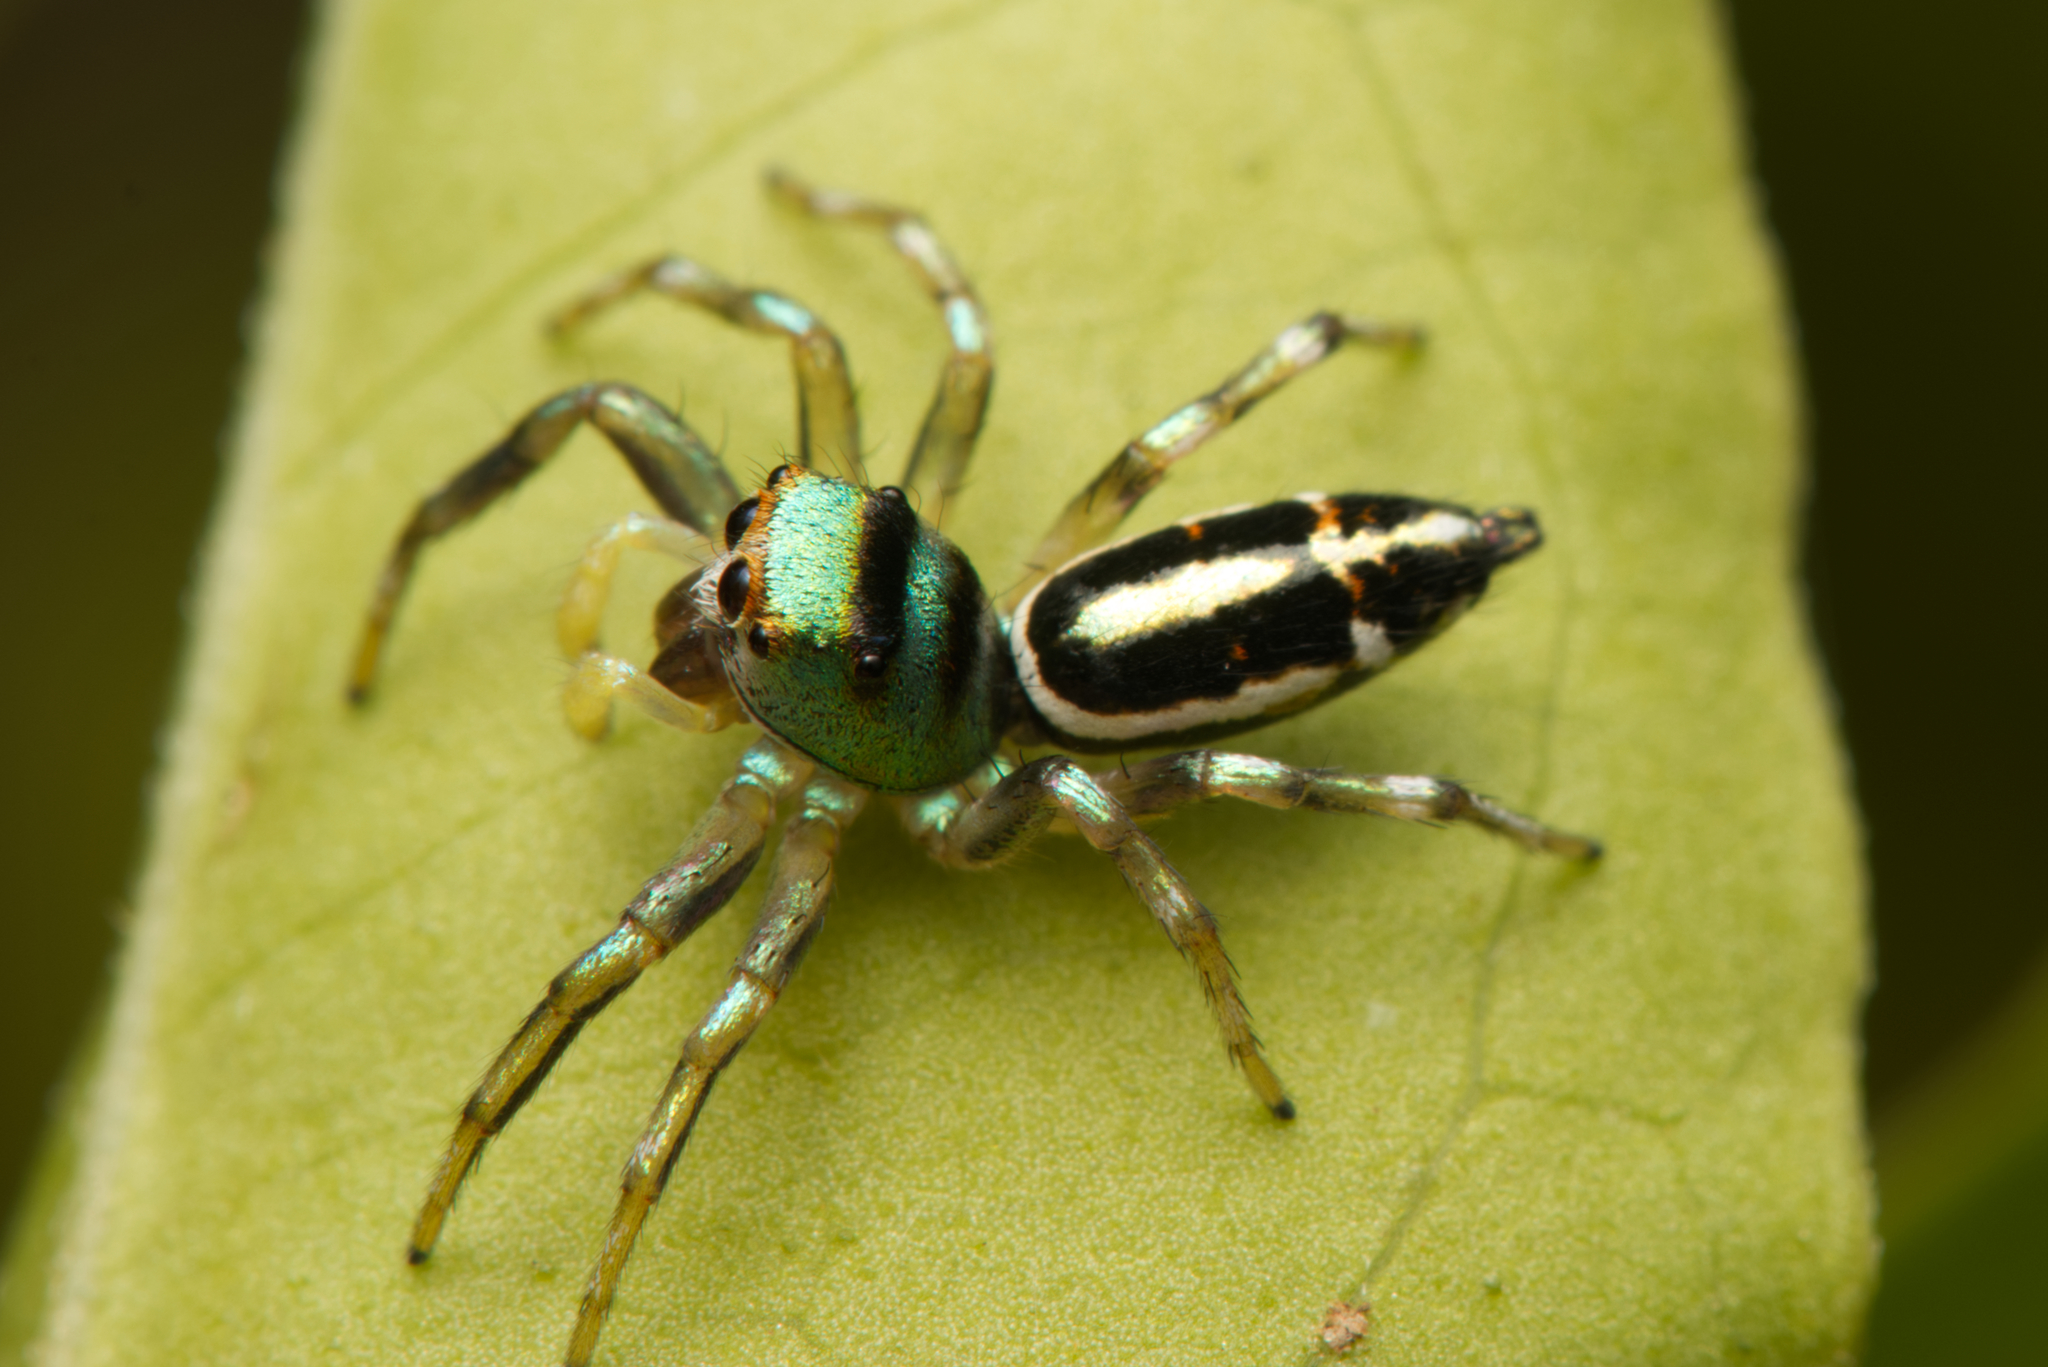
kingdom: Animalia
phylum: Arthropoda
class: Arachnida
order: Araneae
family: Salticidae
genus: Cosmophasis
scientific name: Cosmophasis thalassina
